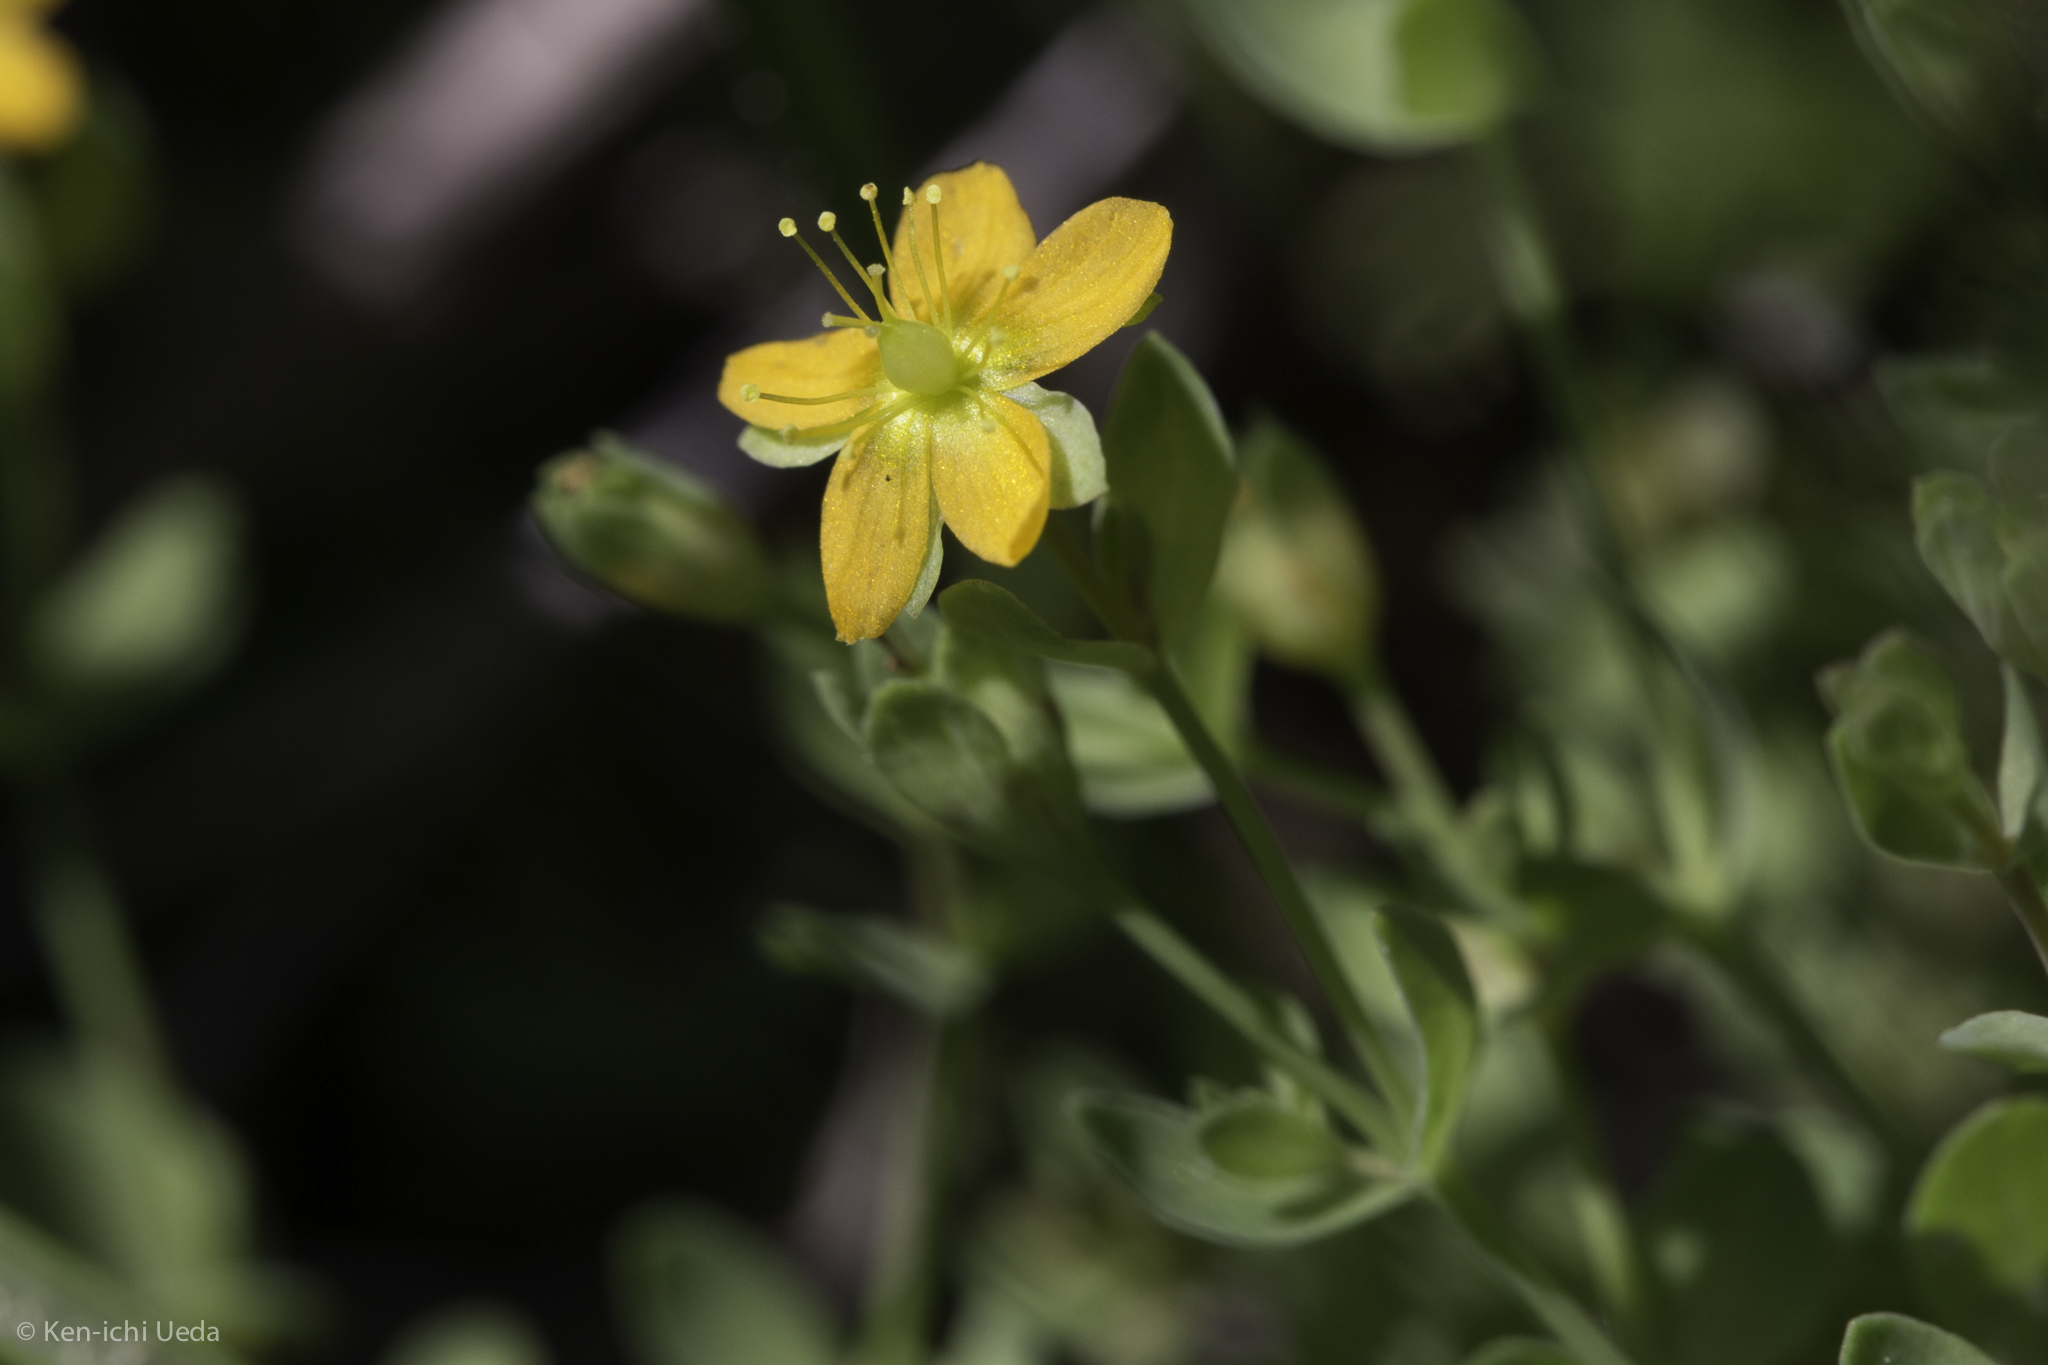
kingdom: Plantae
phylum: Tracheophyta
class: Magnoliopsida
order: Malpighiales
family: Hypericaceae
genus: Hypericum
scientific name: Hypericum anagalloides
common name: Bog st. john's-wort
